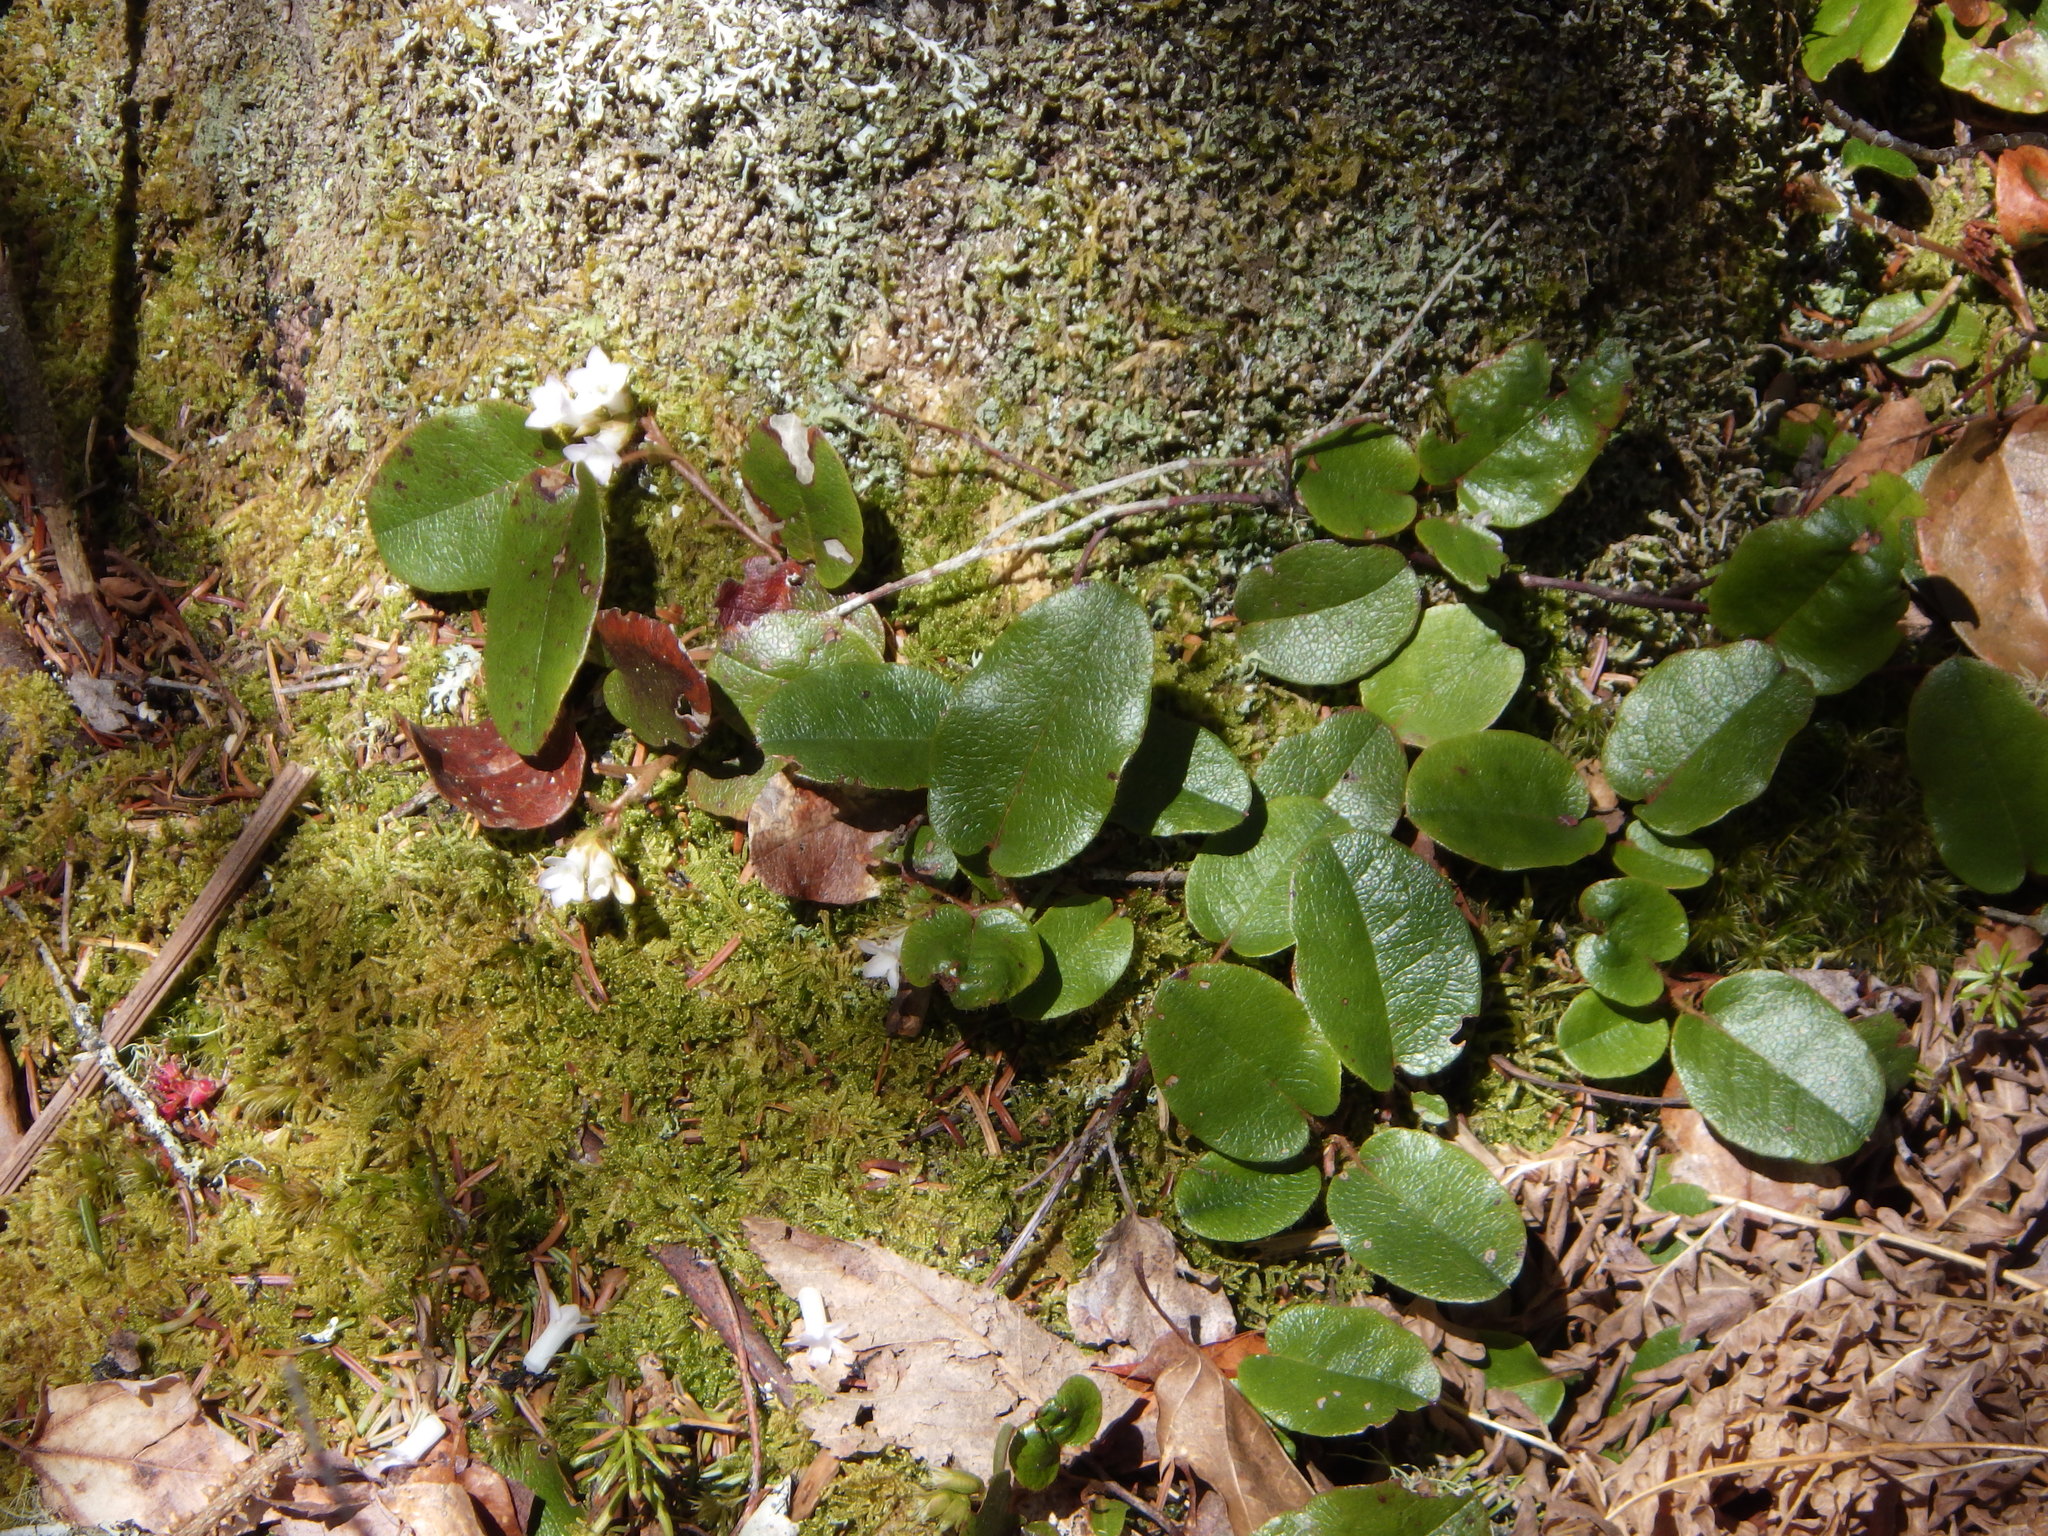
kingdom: Plantae
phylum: Tracheophyta
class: Magnoliopsida
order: Ericales
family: Ericaceae
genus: Epigaea
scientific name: Epigaea repens
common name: Gravelroot
